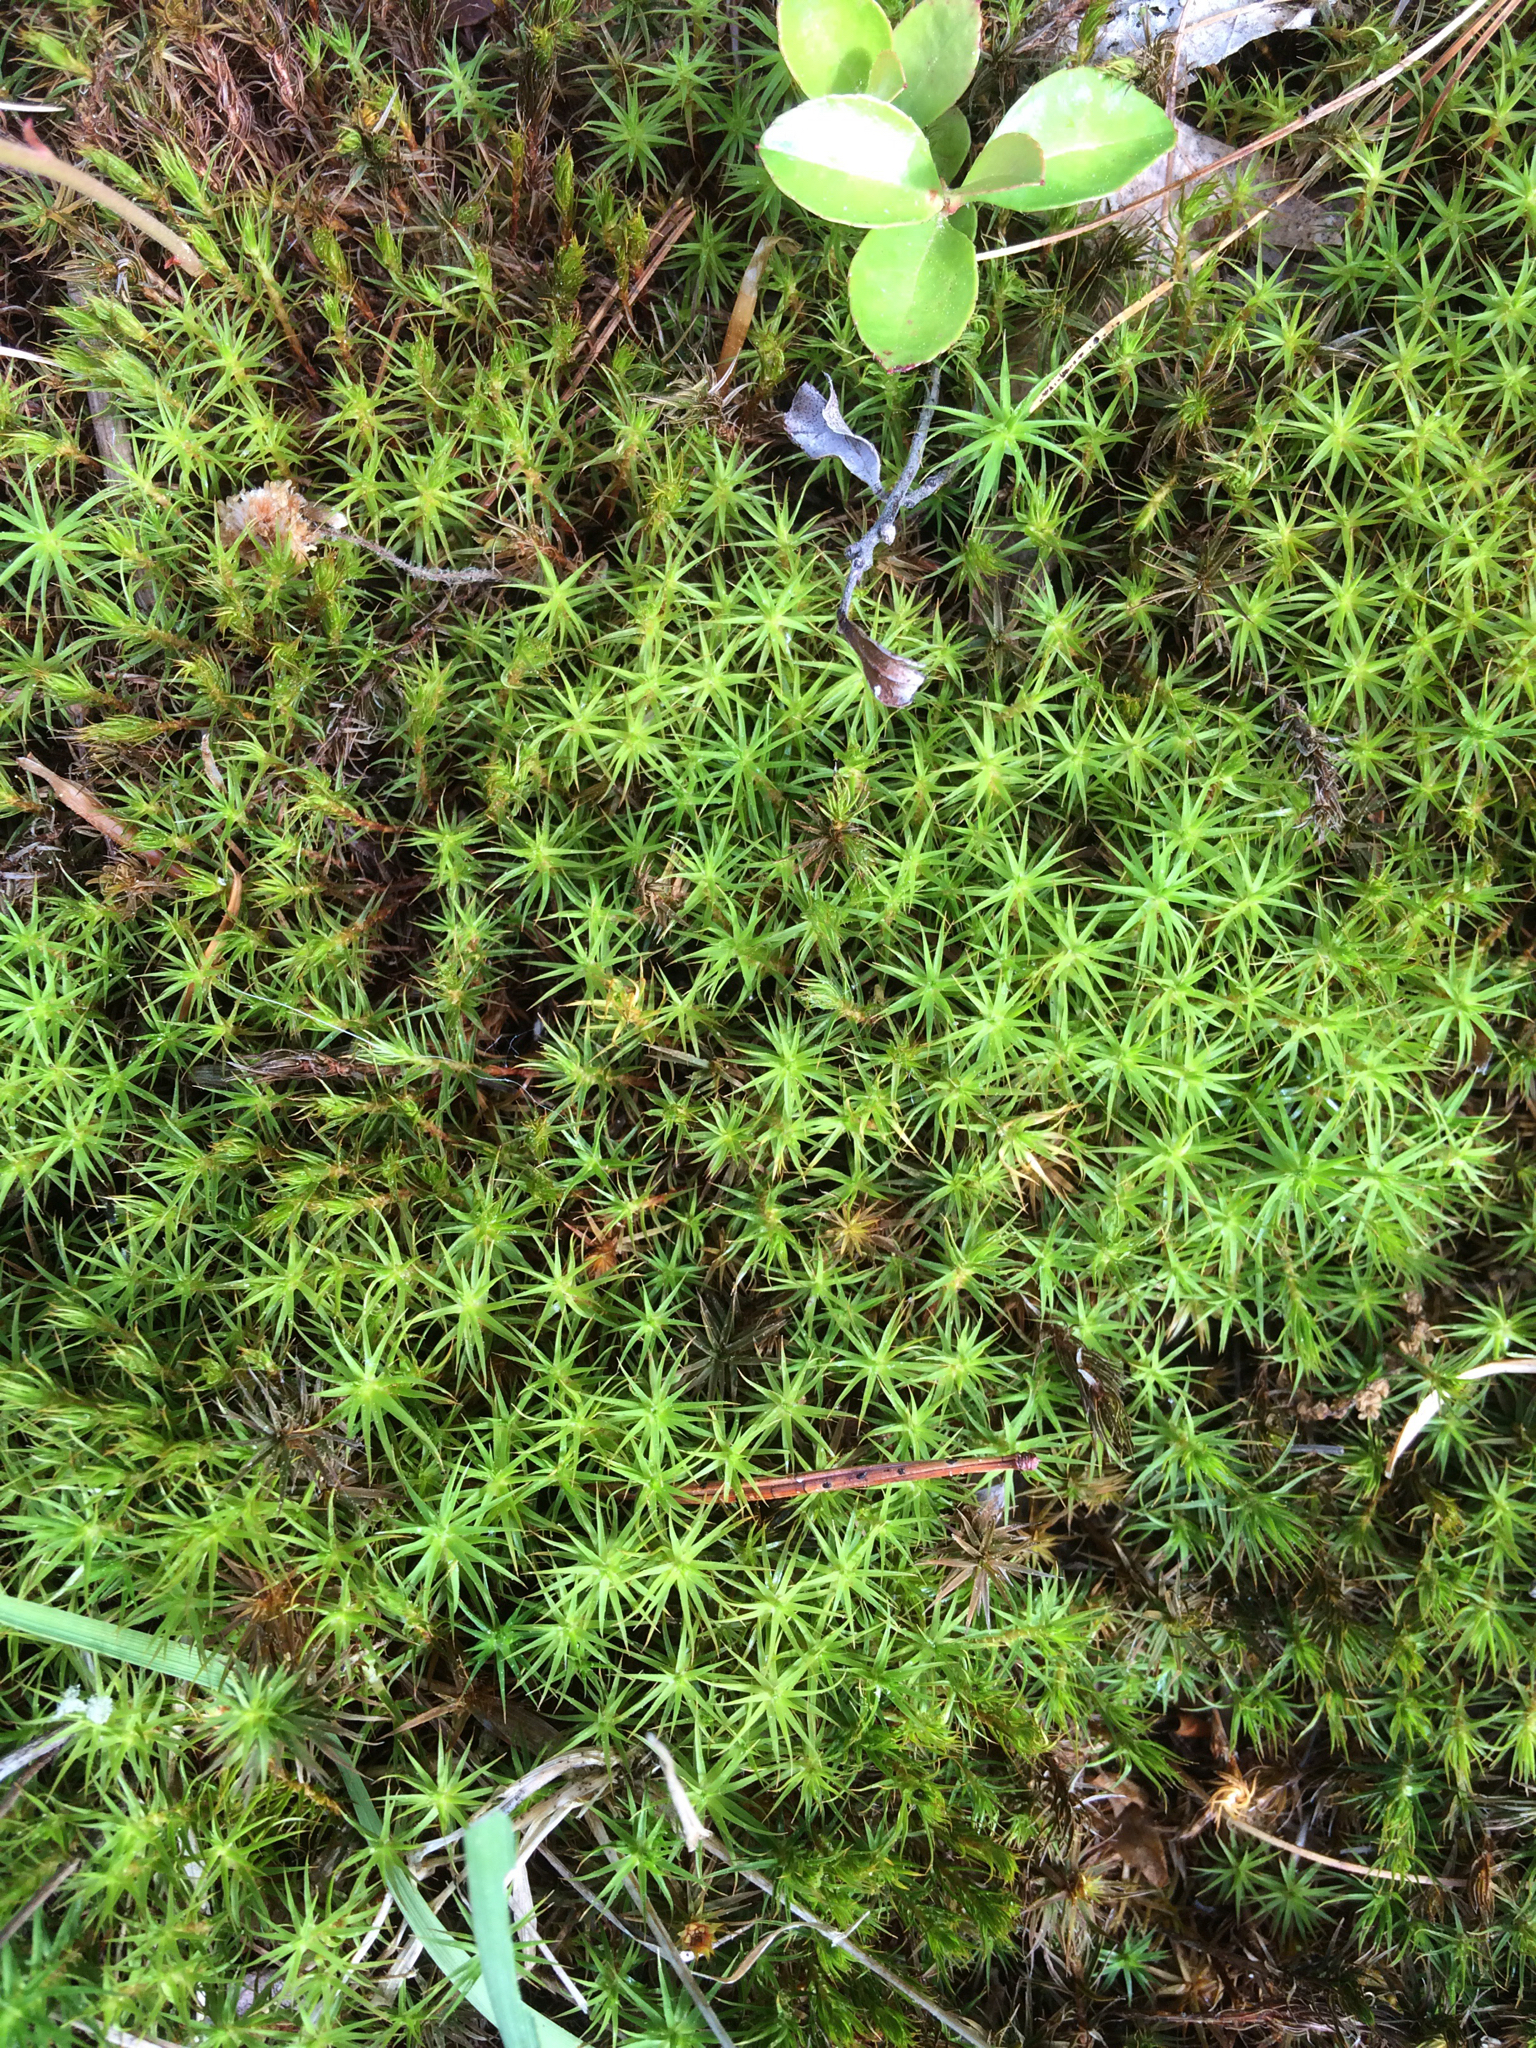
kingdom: Plantae
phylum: Bryophyta
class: Polytrichopsida
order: Polytrichales
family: Polytrichaceae
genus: Polytrichum
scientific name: Polytrichum
